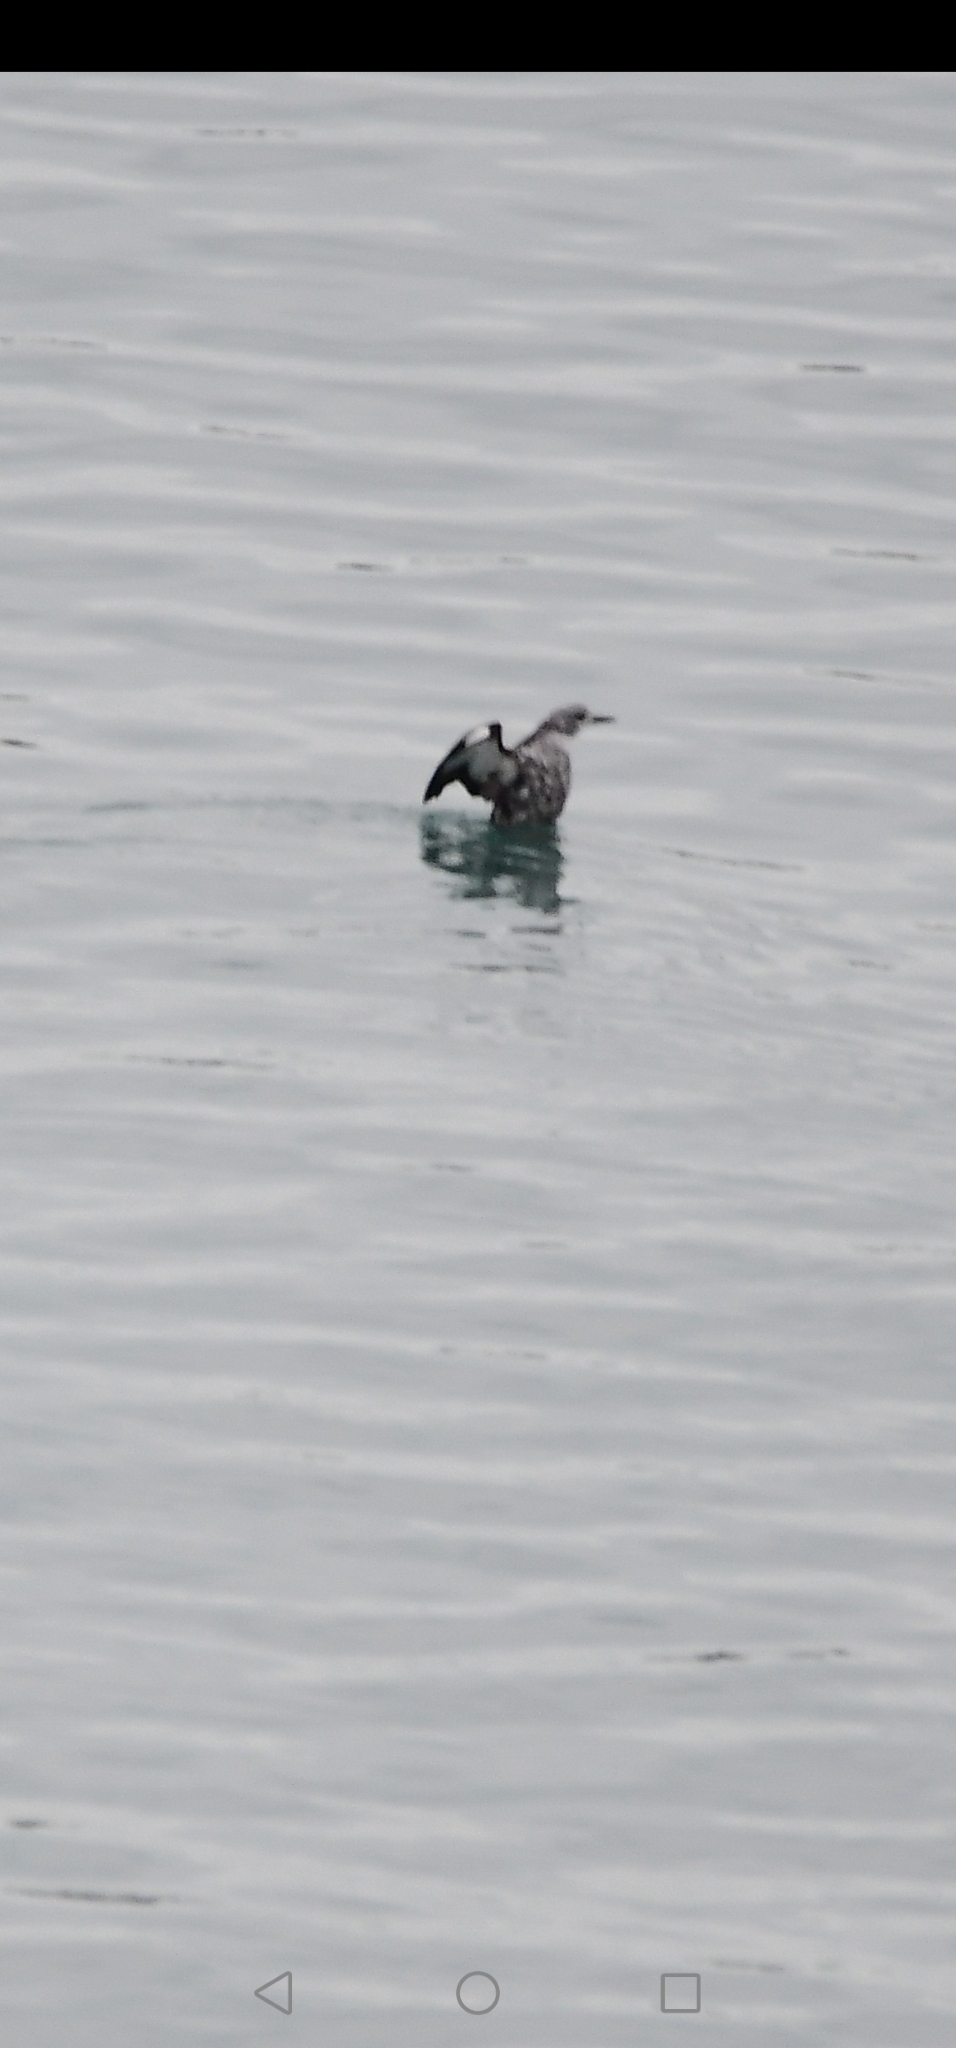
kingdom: Animalia
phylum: Chordata
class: Aves
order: Charadriiformes
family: Alcidae
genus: Cepphus
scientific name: Cepphus grylle
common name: Black guillemot
